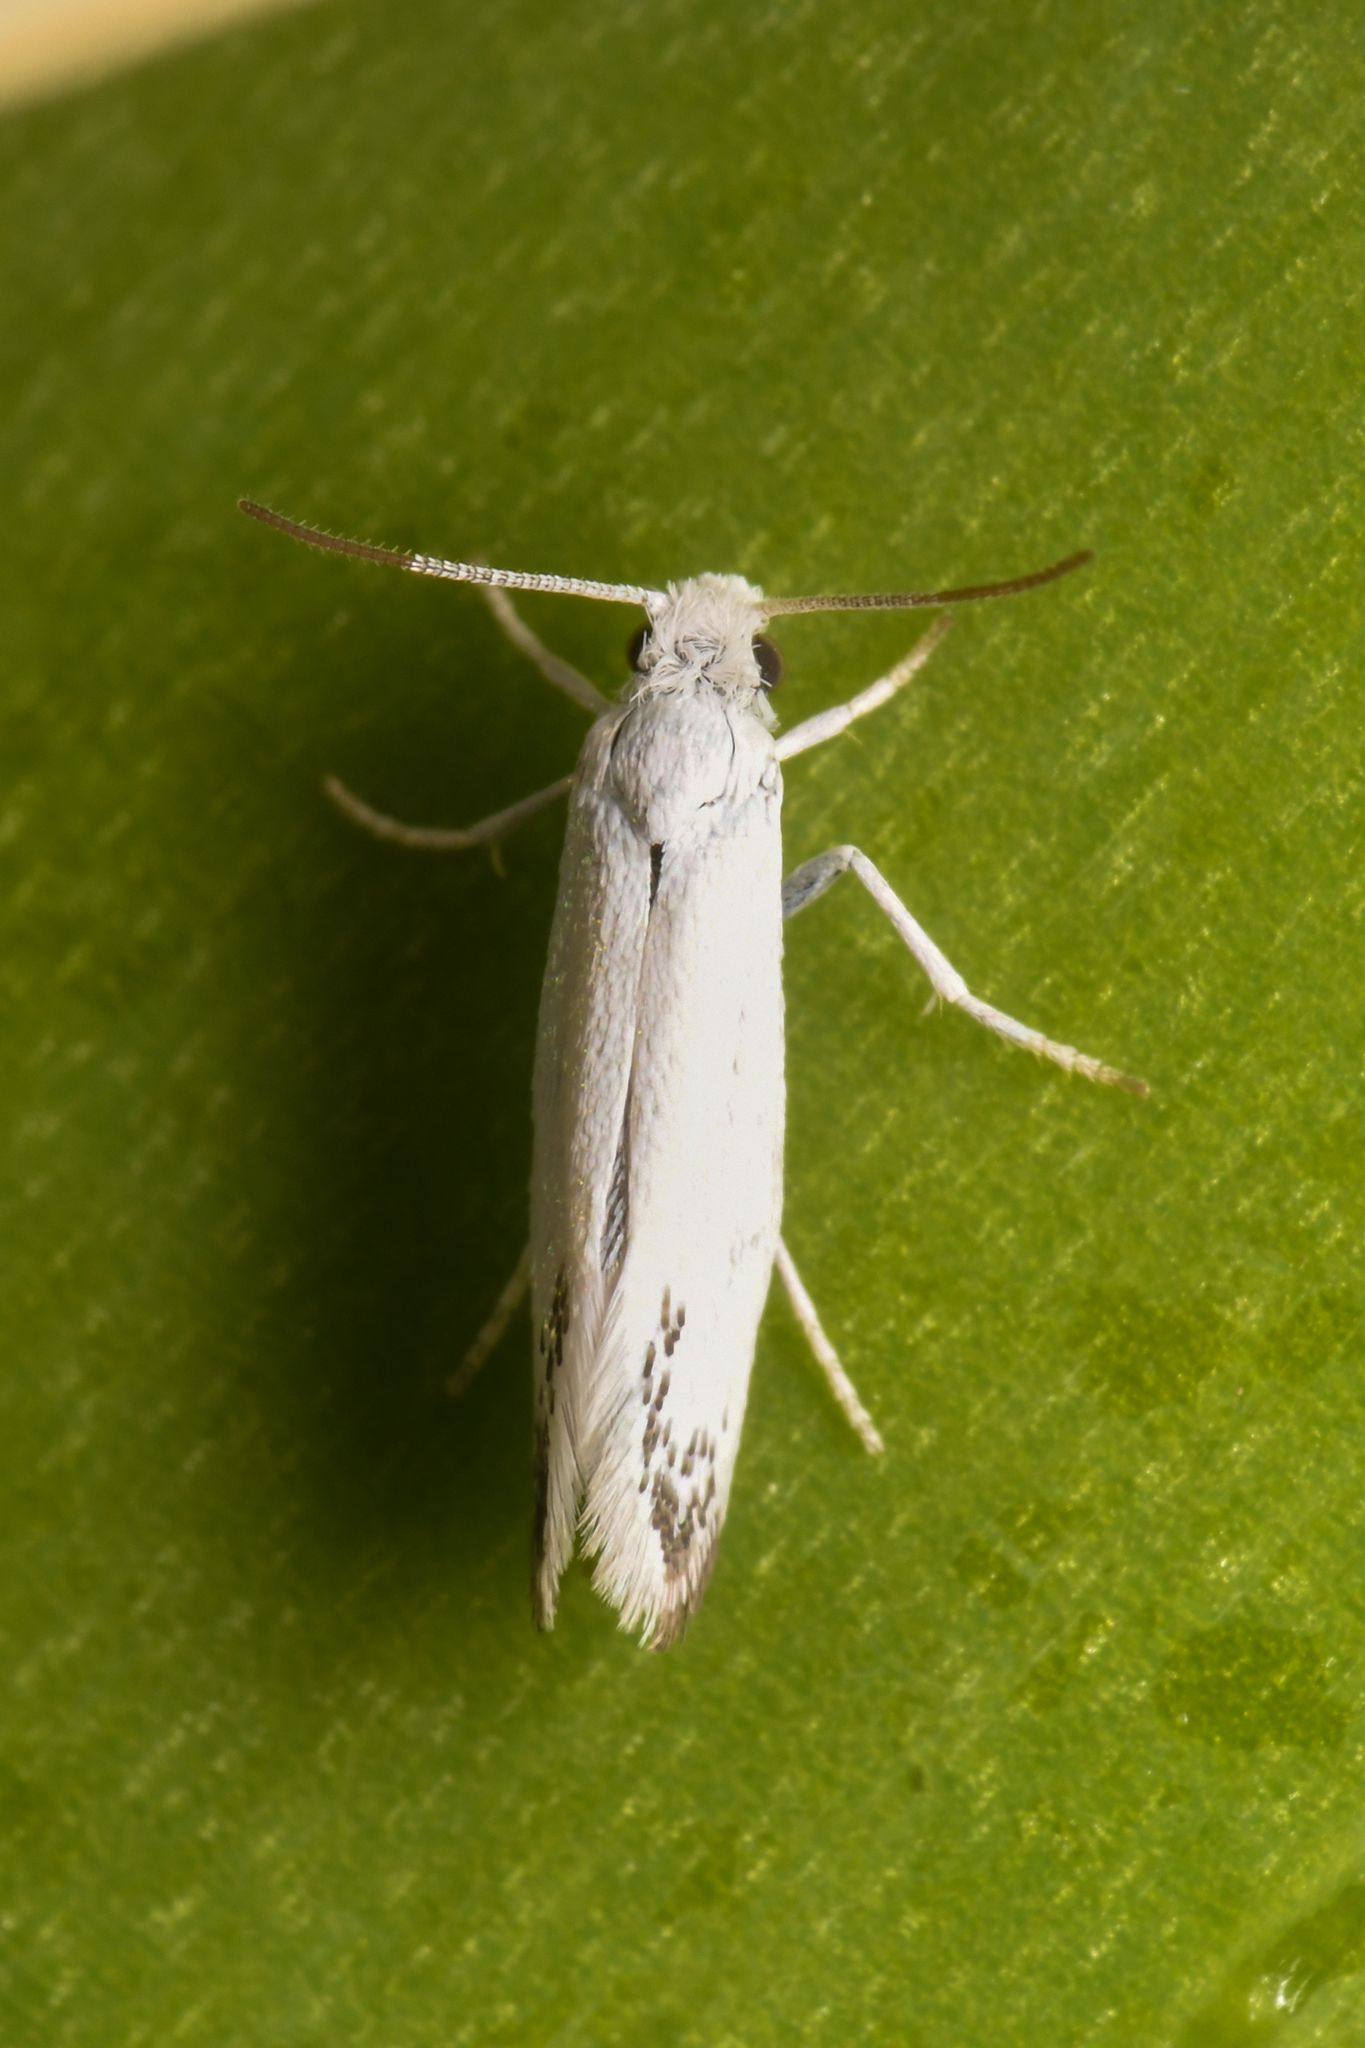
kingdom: Animalia
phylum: Arthropoda
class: Insecta
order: Lepidoptera
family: Prodoxidae
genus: Prodoxus
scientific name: Prodoxus marginatus
